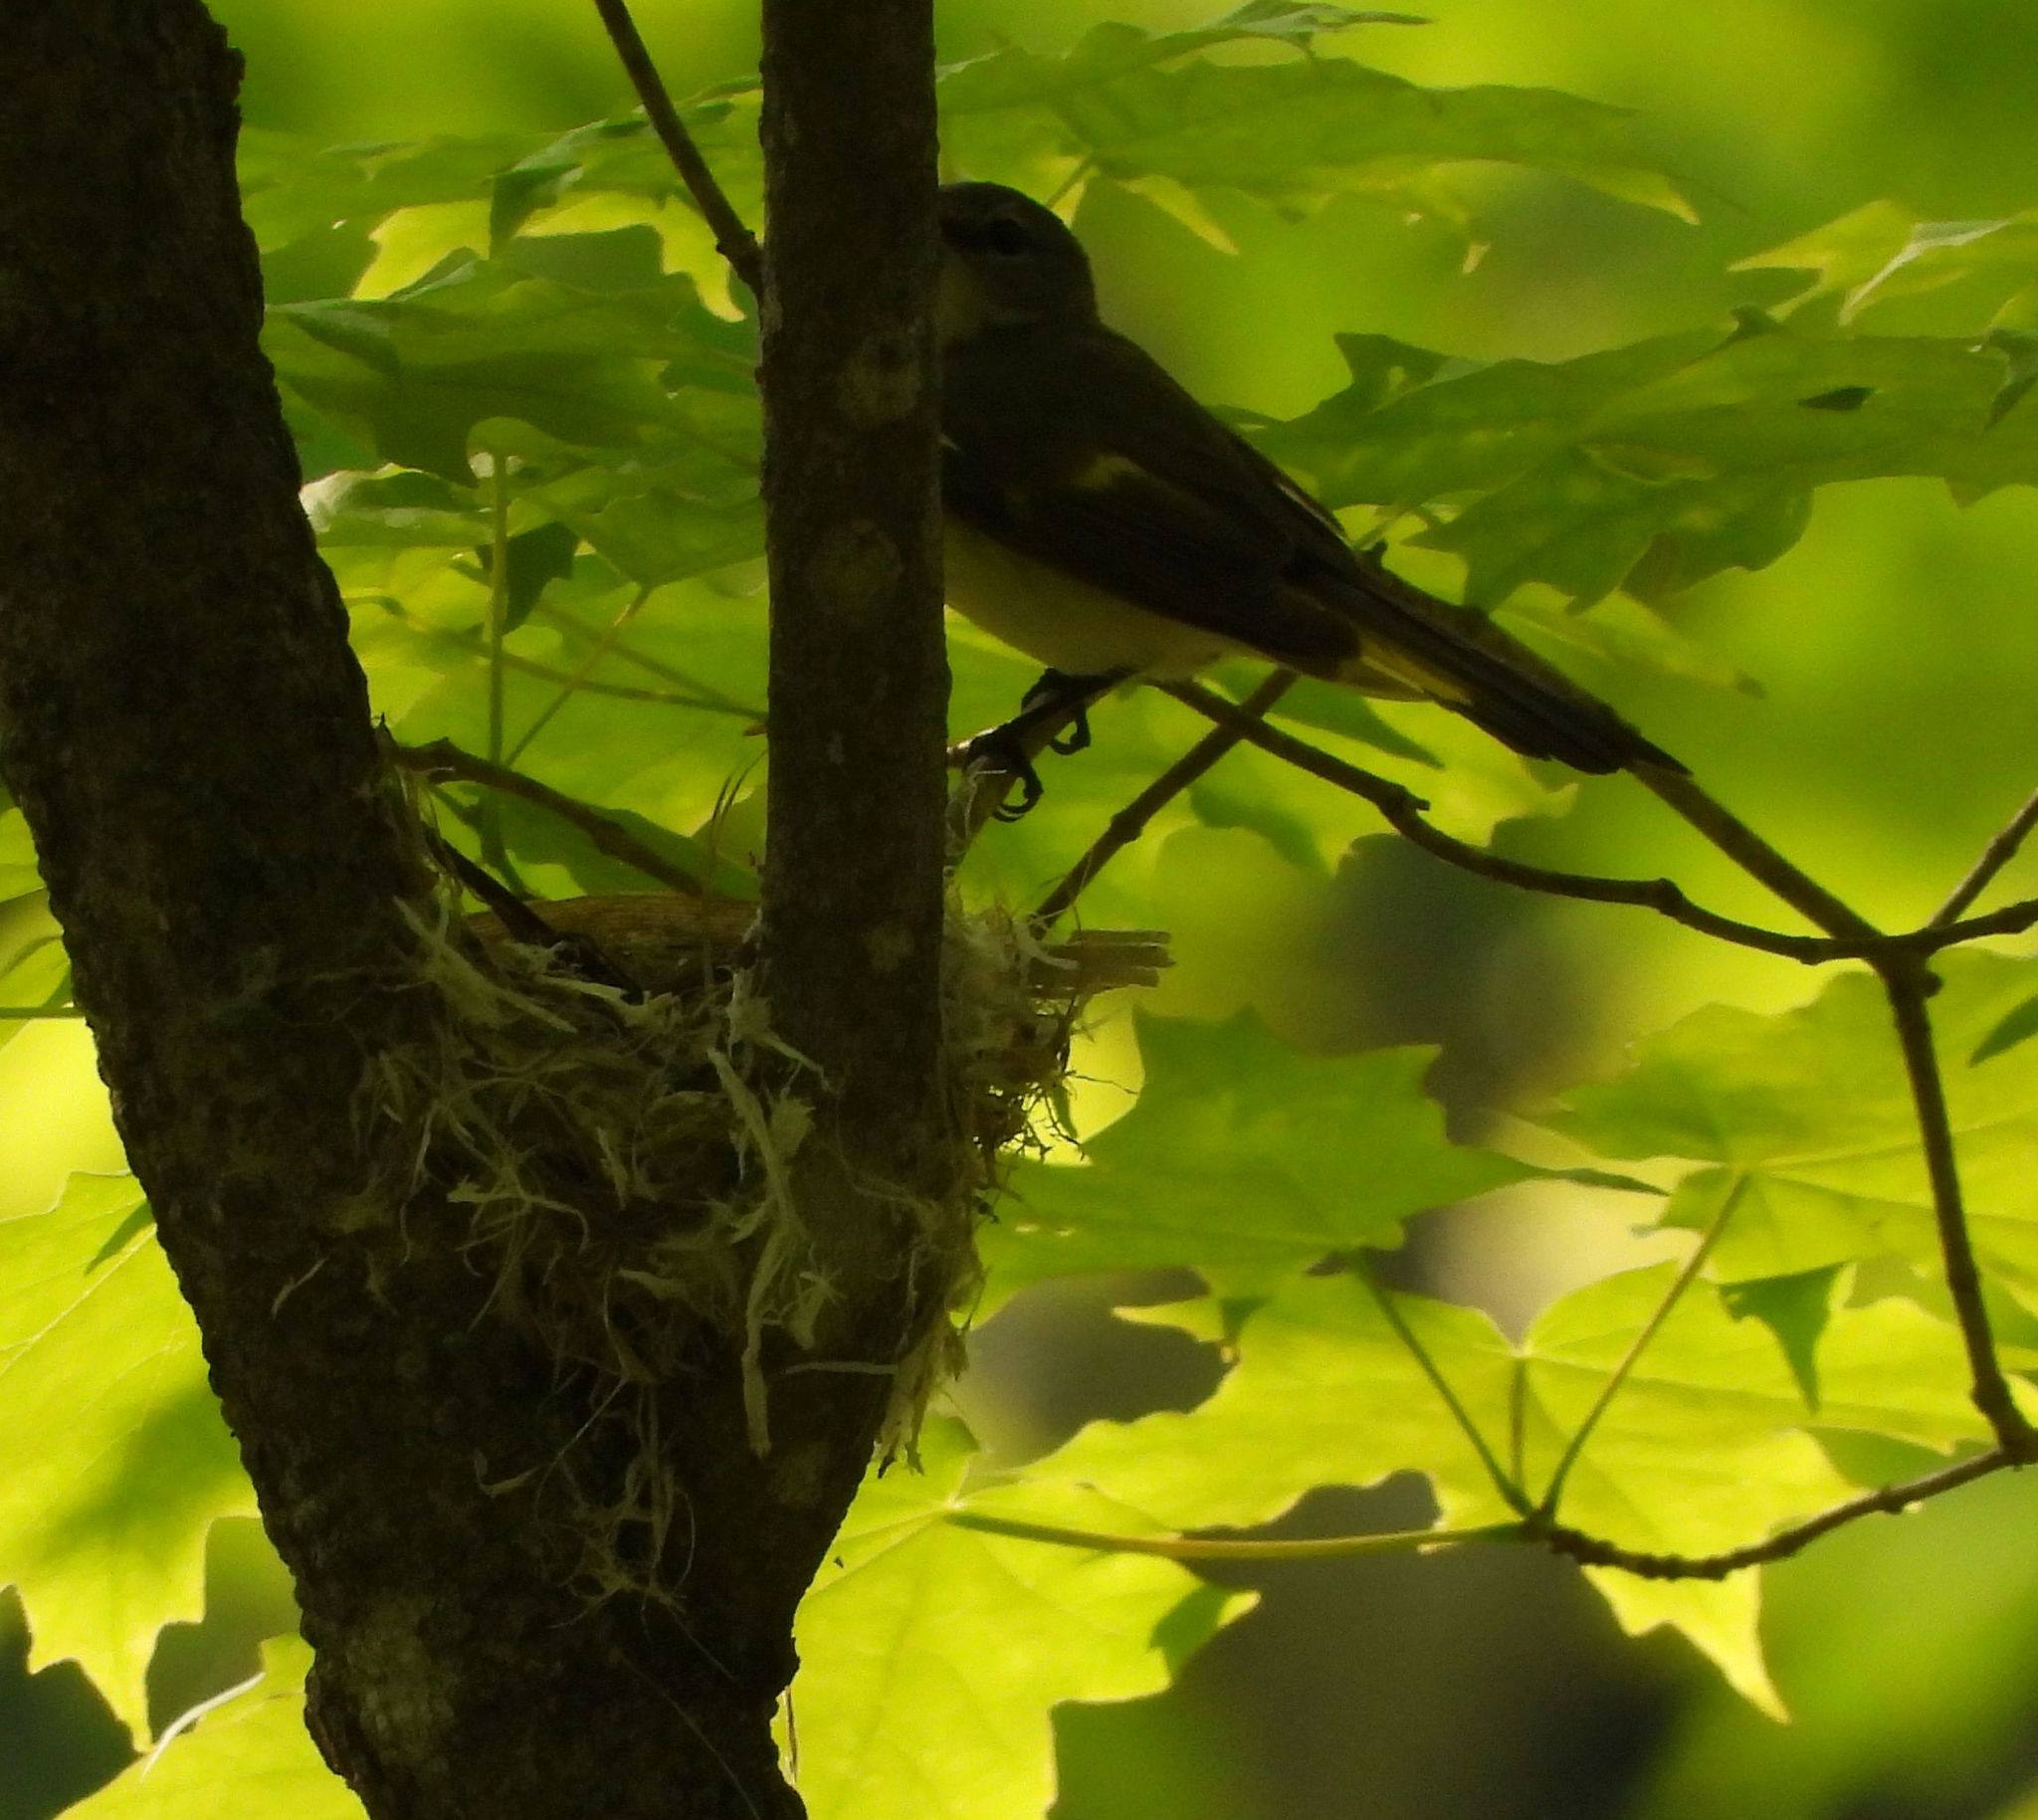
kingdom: Animalia
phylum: Chordata
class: Aves
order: Passeriformes
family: Parulidae
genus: Setophaga
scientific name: Setophaga ruticilla
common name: American redstart
